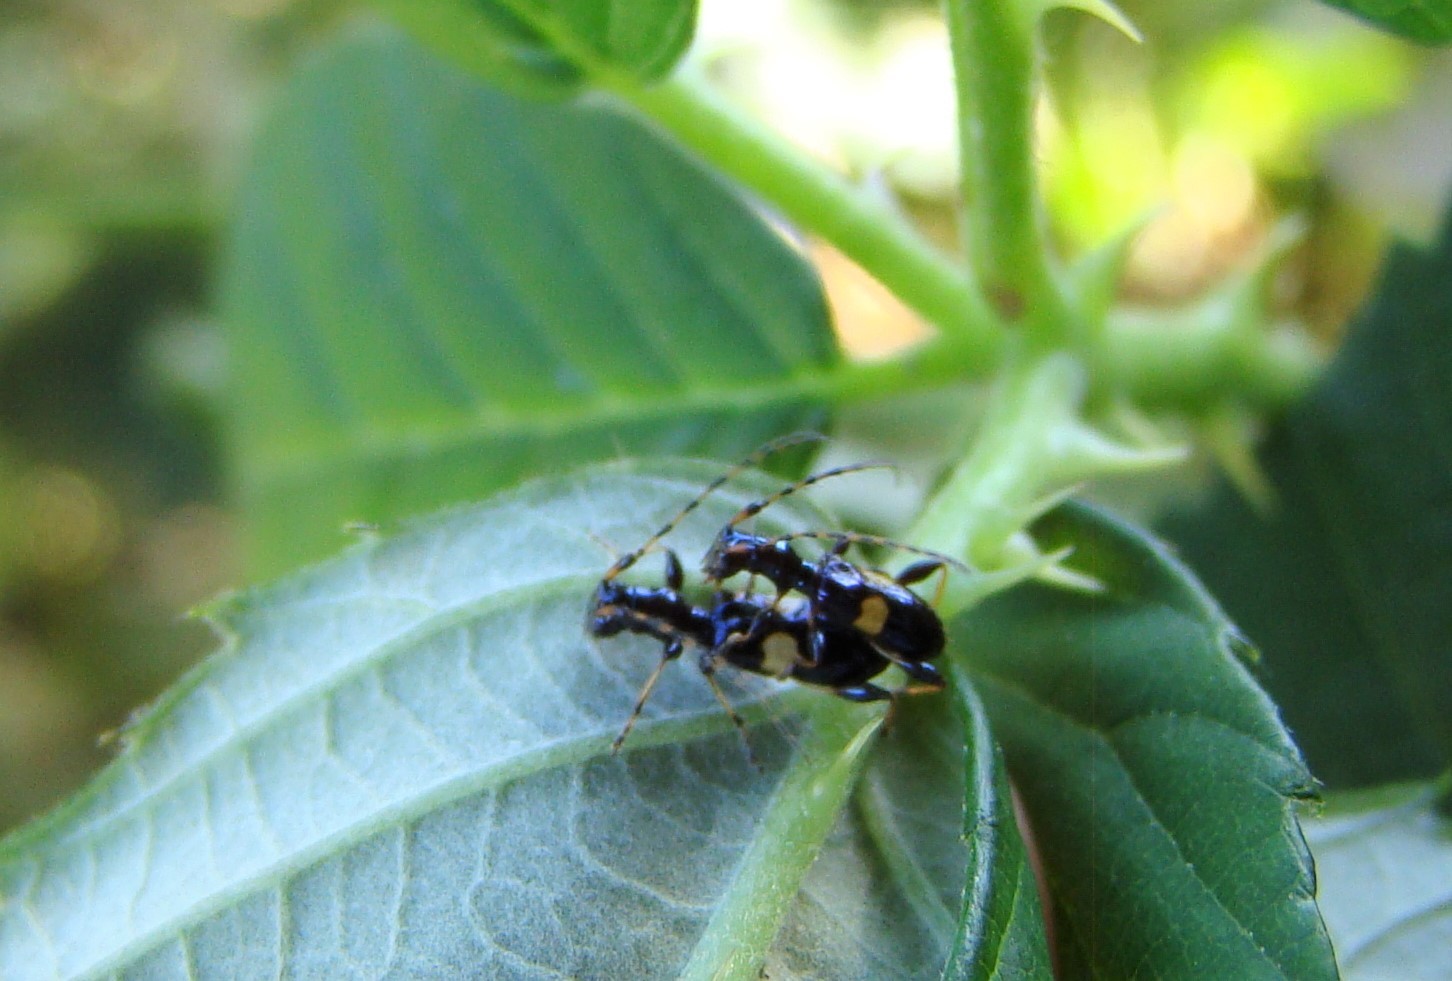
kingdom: Animalia
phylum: Arthropoda
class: Insecta
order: Coleoptera
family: Cerambycidae
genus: Zorion
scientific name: Zorion guttigerum
